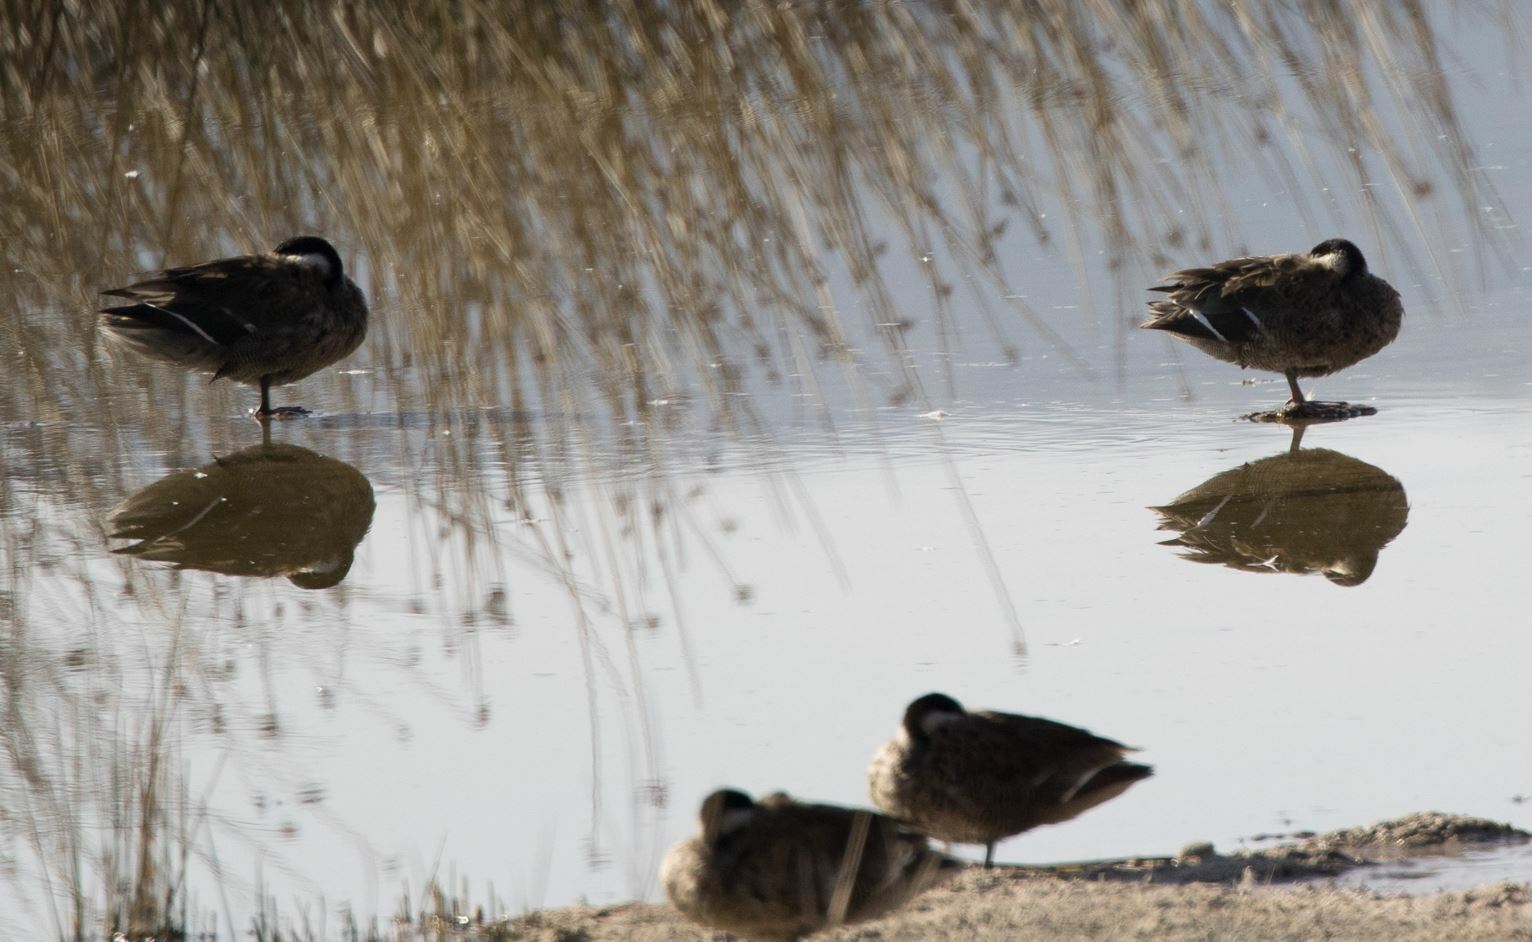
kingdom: Animalia
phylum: Chordata
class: Aves
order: Anseriformes
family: Anatidae
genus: Spatula
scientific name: Spatula puna
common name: Puna teal
